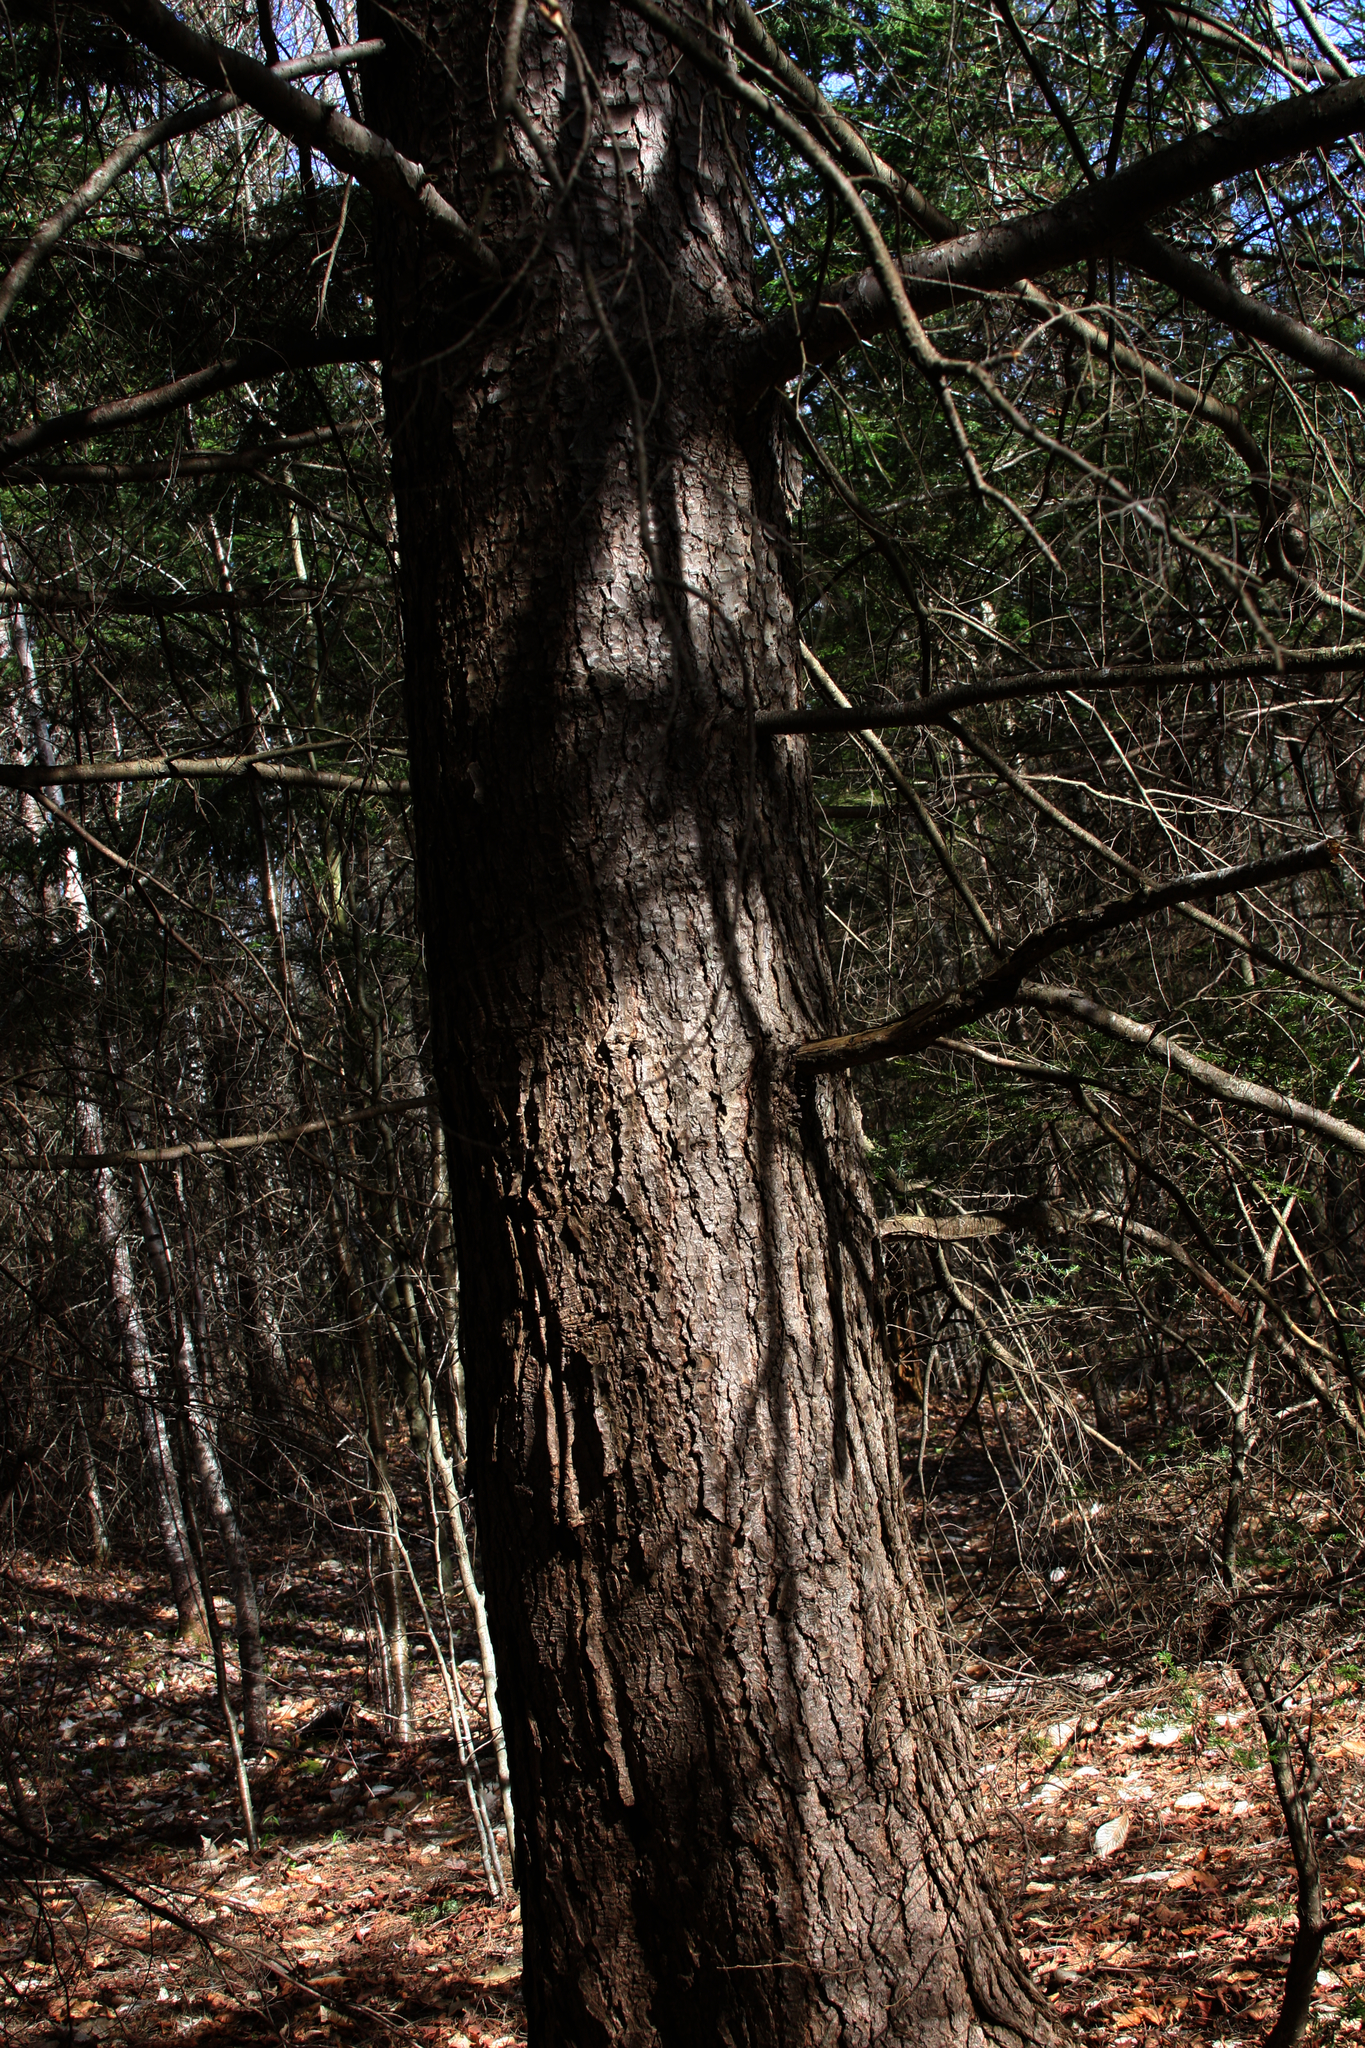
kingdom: Plantae
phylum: Tracheophyta
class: Pinopsida
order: Pinales
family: Pinaceae
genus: Tsuga
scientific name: Tsuga canadensis
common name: Eastern hemlock
